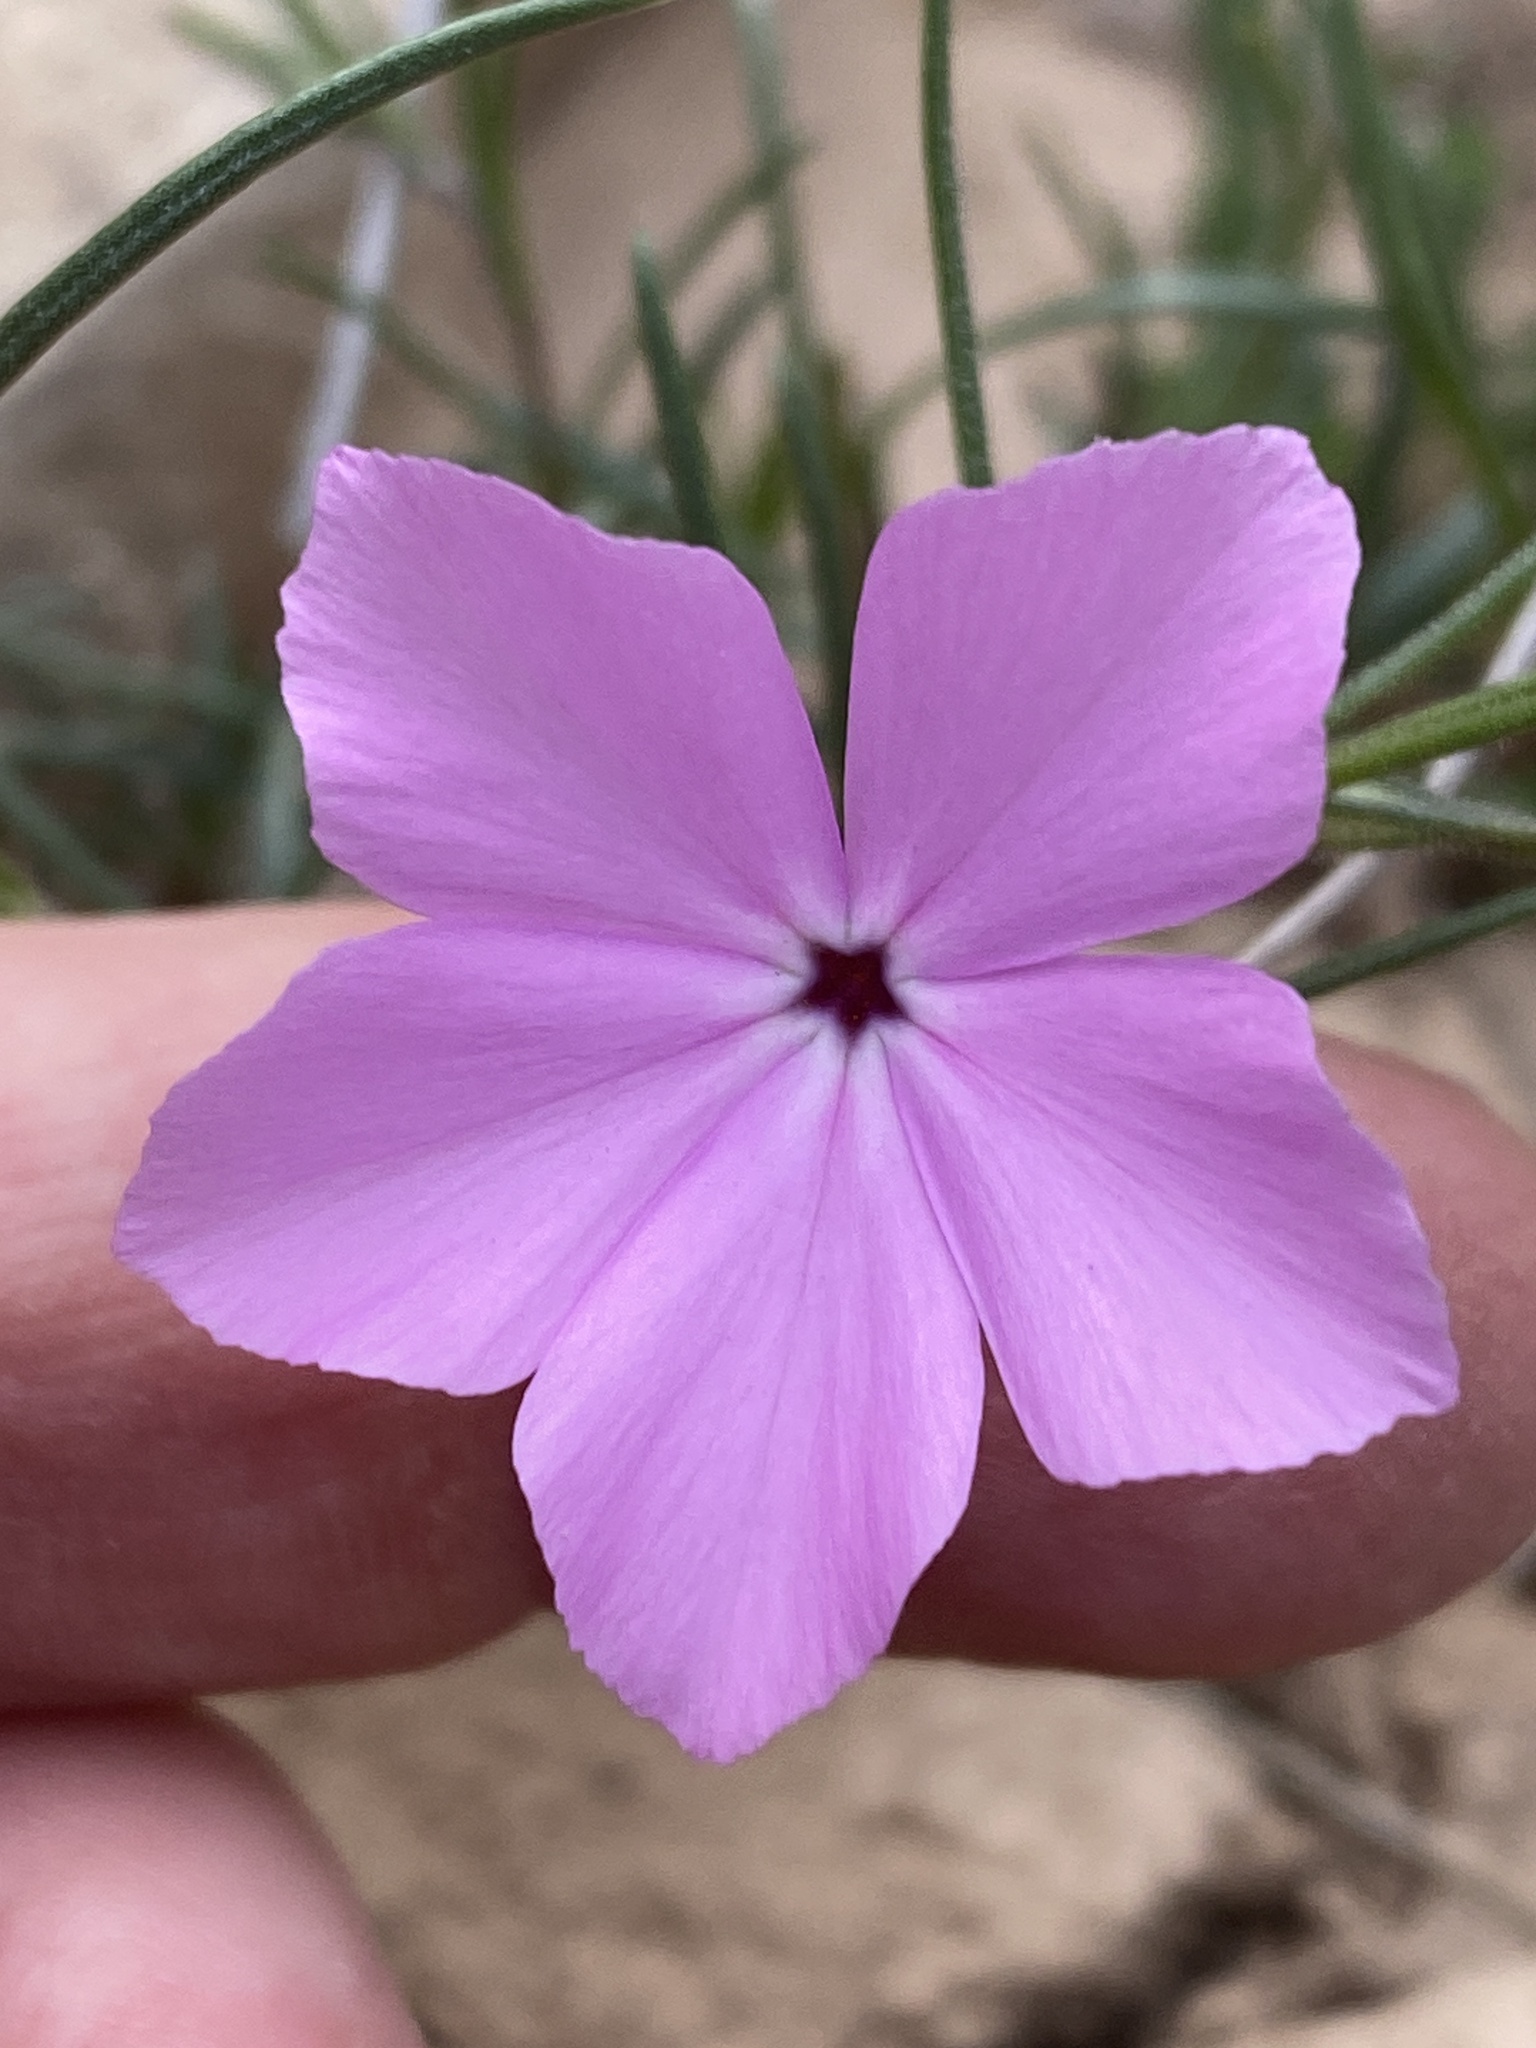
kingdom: Plantae
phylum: Tracheophyta
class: Magnoliopsida
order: Ericales
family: Polemoniaceae
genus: Phlox
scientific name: Phlox nana
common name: Santa fe phlox
